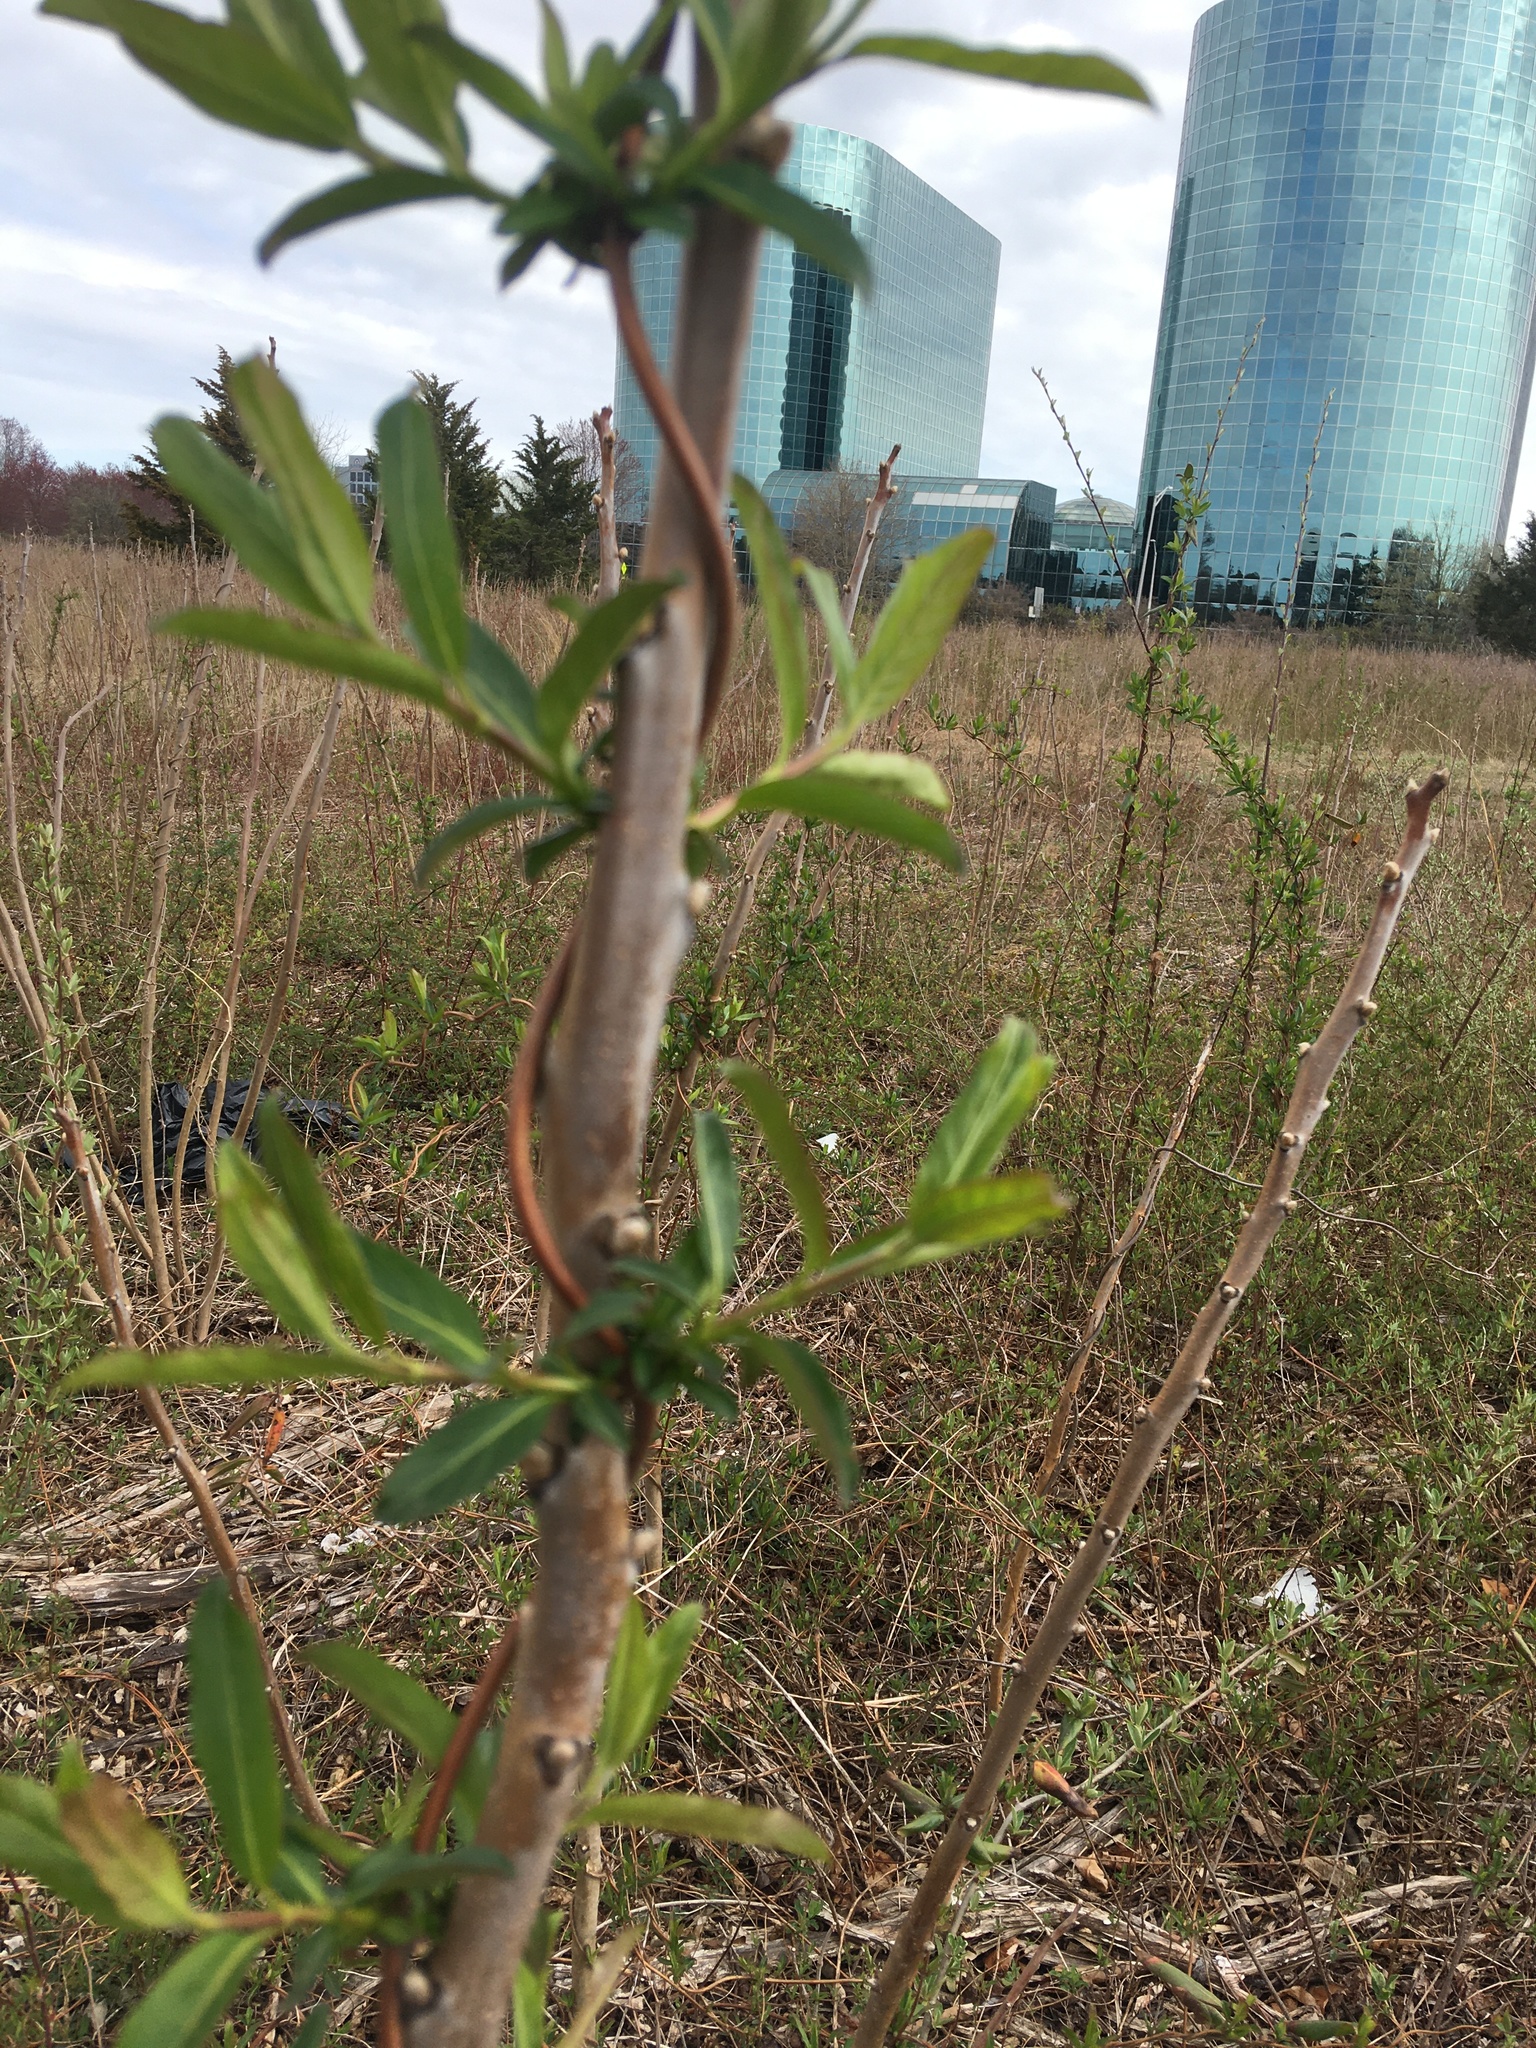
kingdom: Plantae
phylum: Tracheophyta
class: Magnoliopsida
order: Dipsacales
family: Caprifoliaceae
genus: Lonicera
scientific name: Lonicera japonica
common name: Japanese honeysuckle
